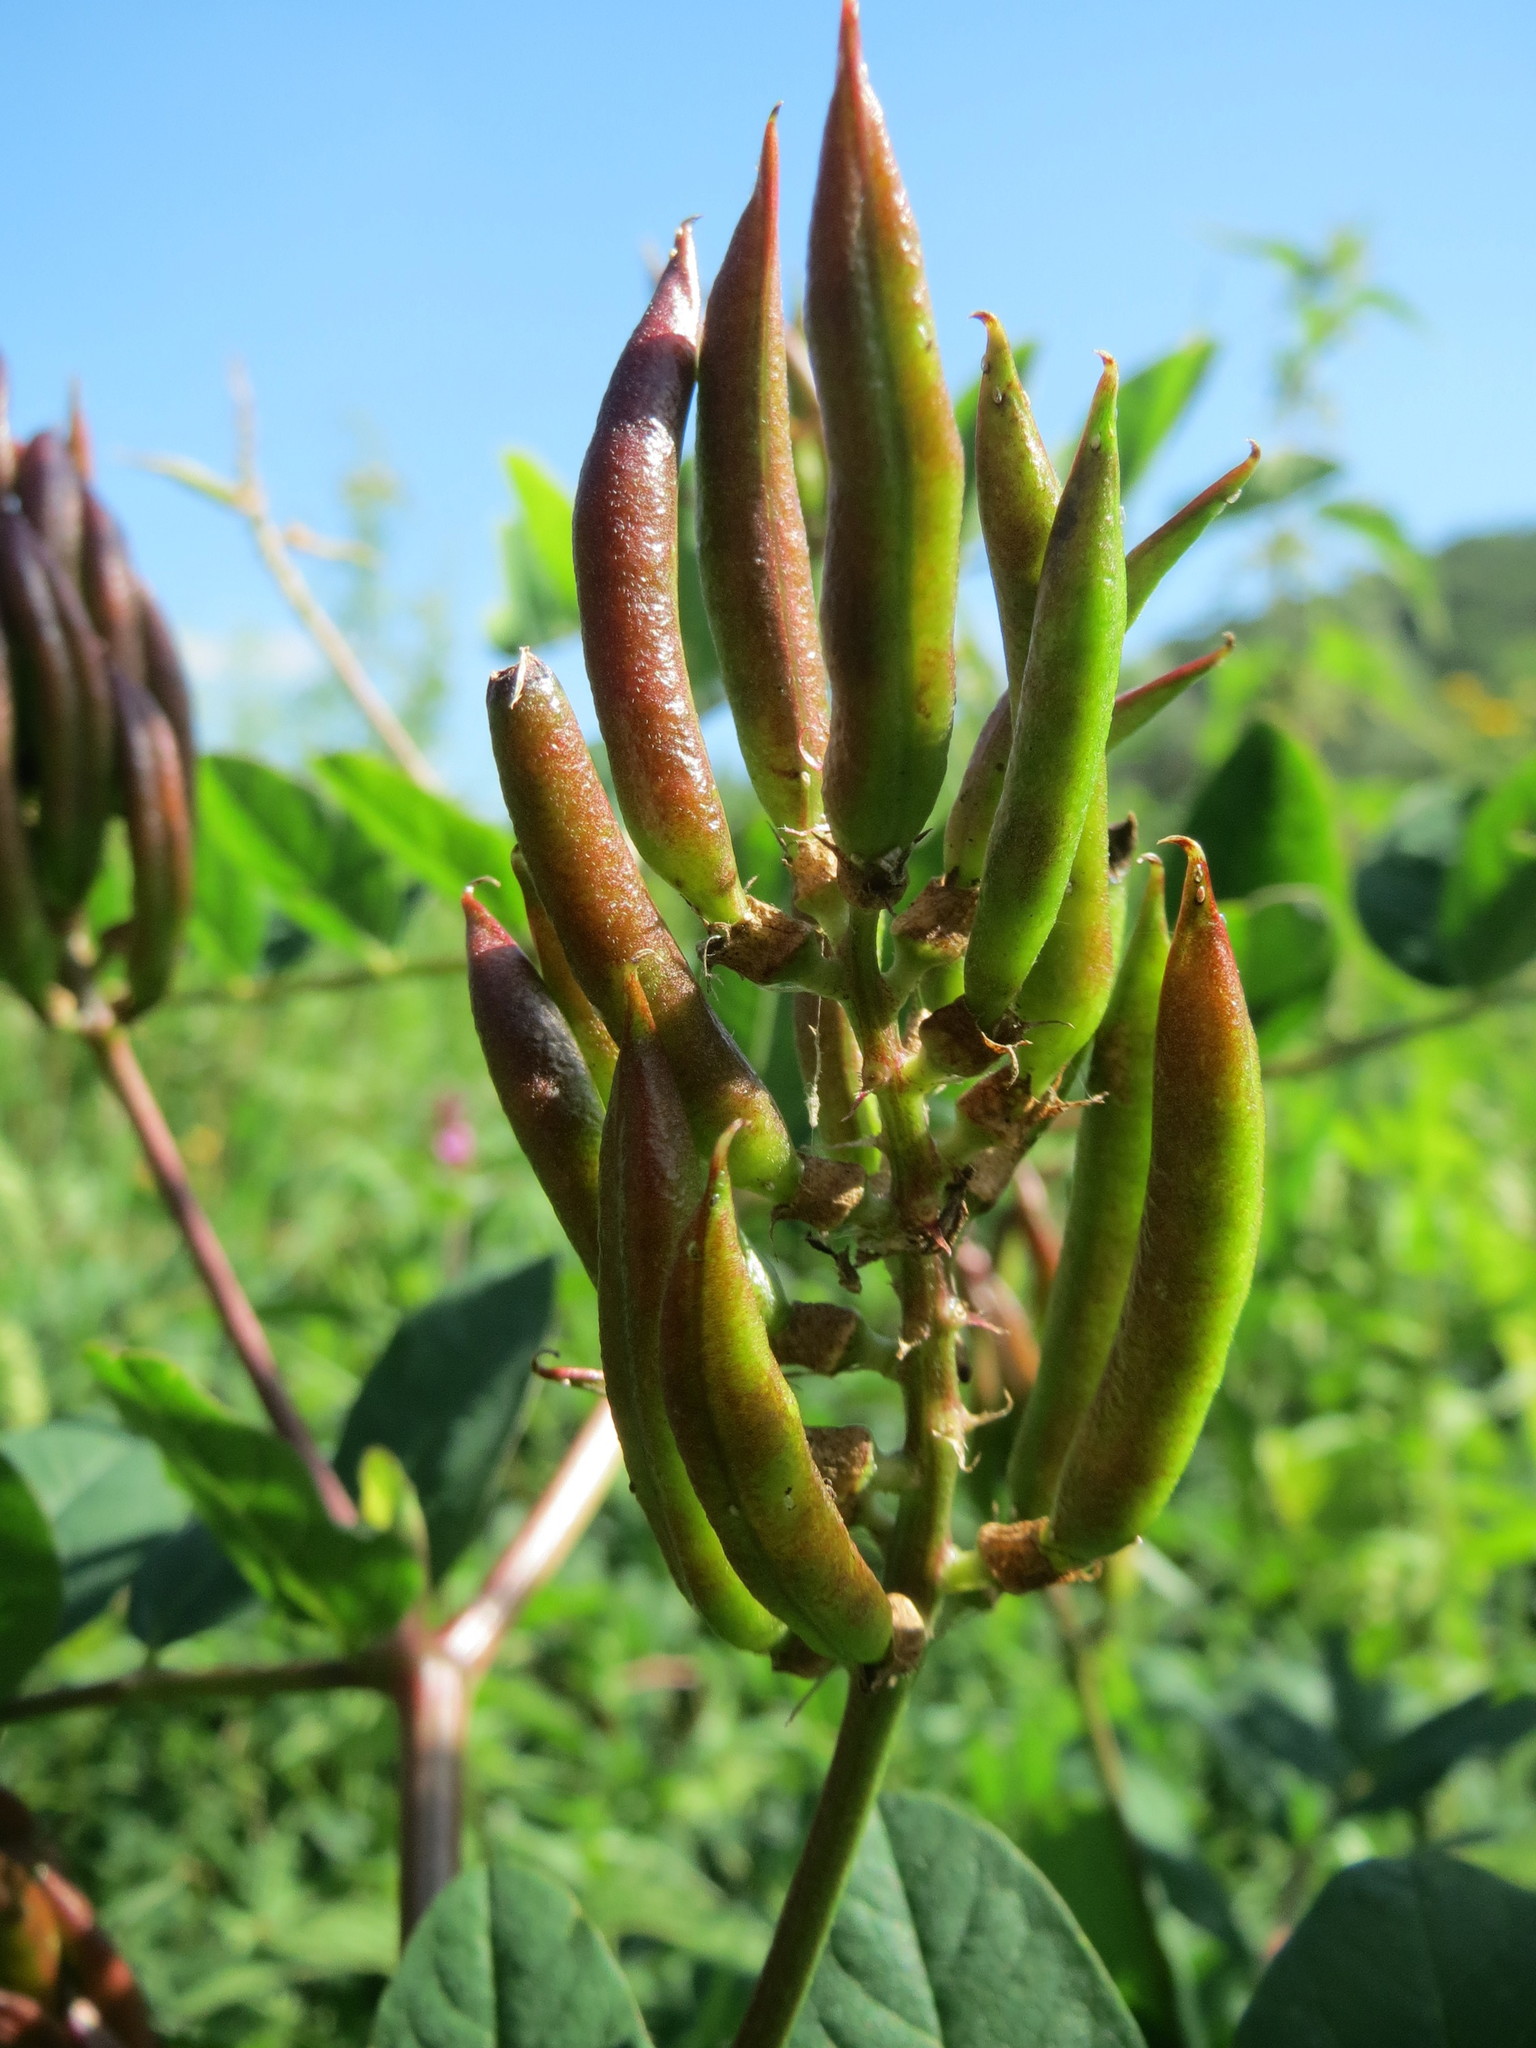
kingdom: Plantae
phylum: Tracheophyta
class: Magnoliopsida
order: Fabales
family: Fabaceae
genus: Astragalus
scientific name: Astragalus glycyphyllos
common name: Wild liquorice
